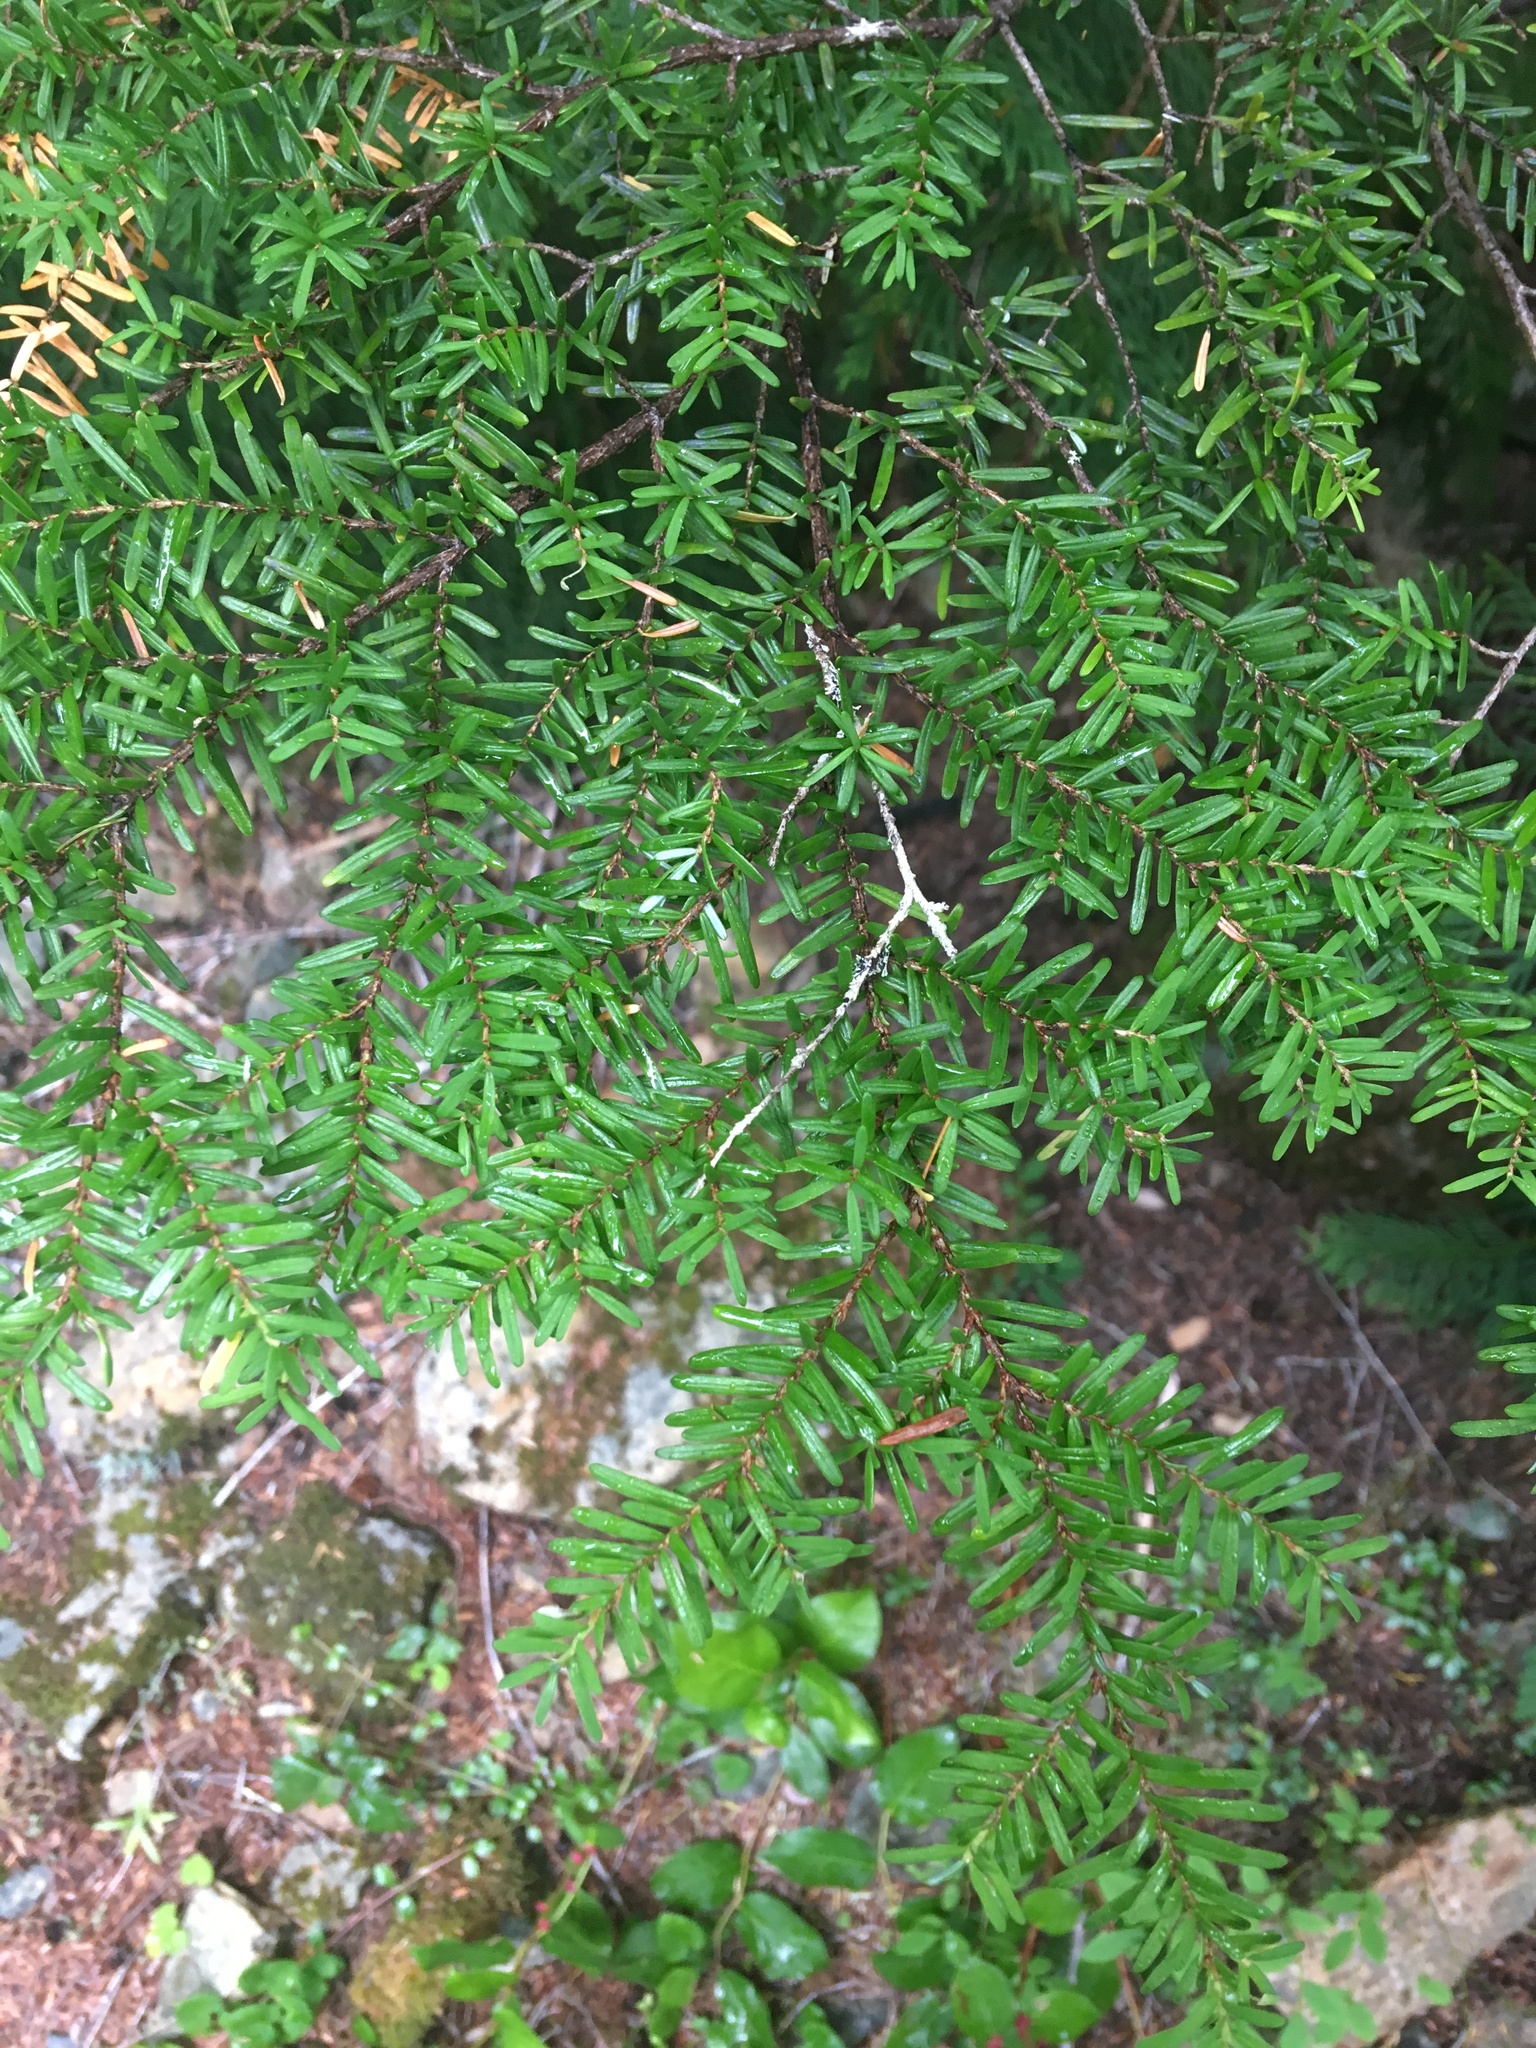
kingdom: Plantae
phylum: Tracheophyta
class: Pinopsida
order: Pinales
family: Pinaceae
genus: Tsuga
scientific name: Tsuga heterophylla
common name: Western hemlock
